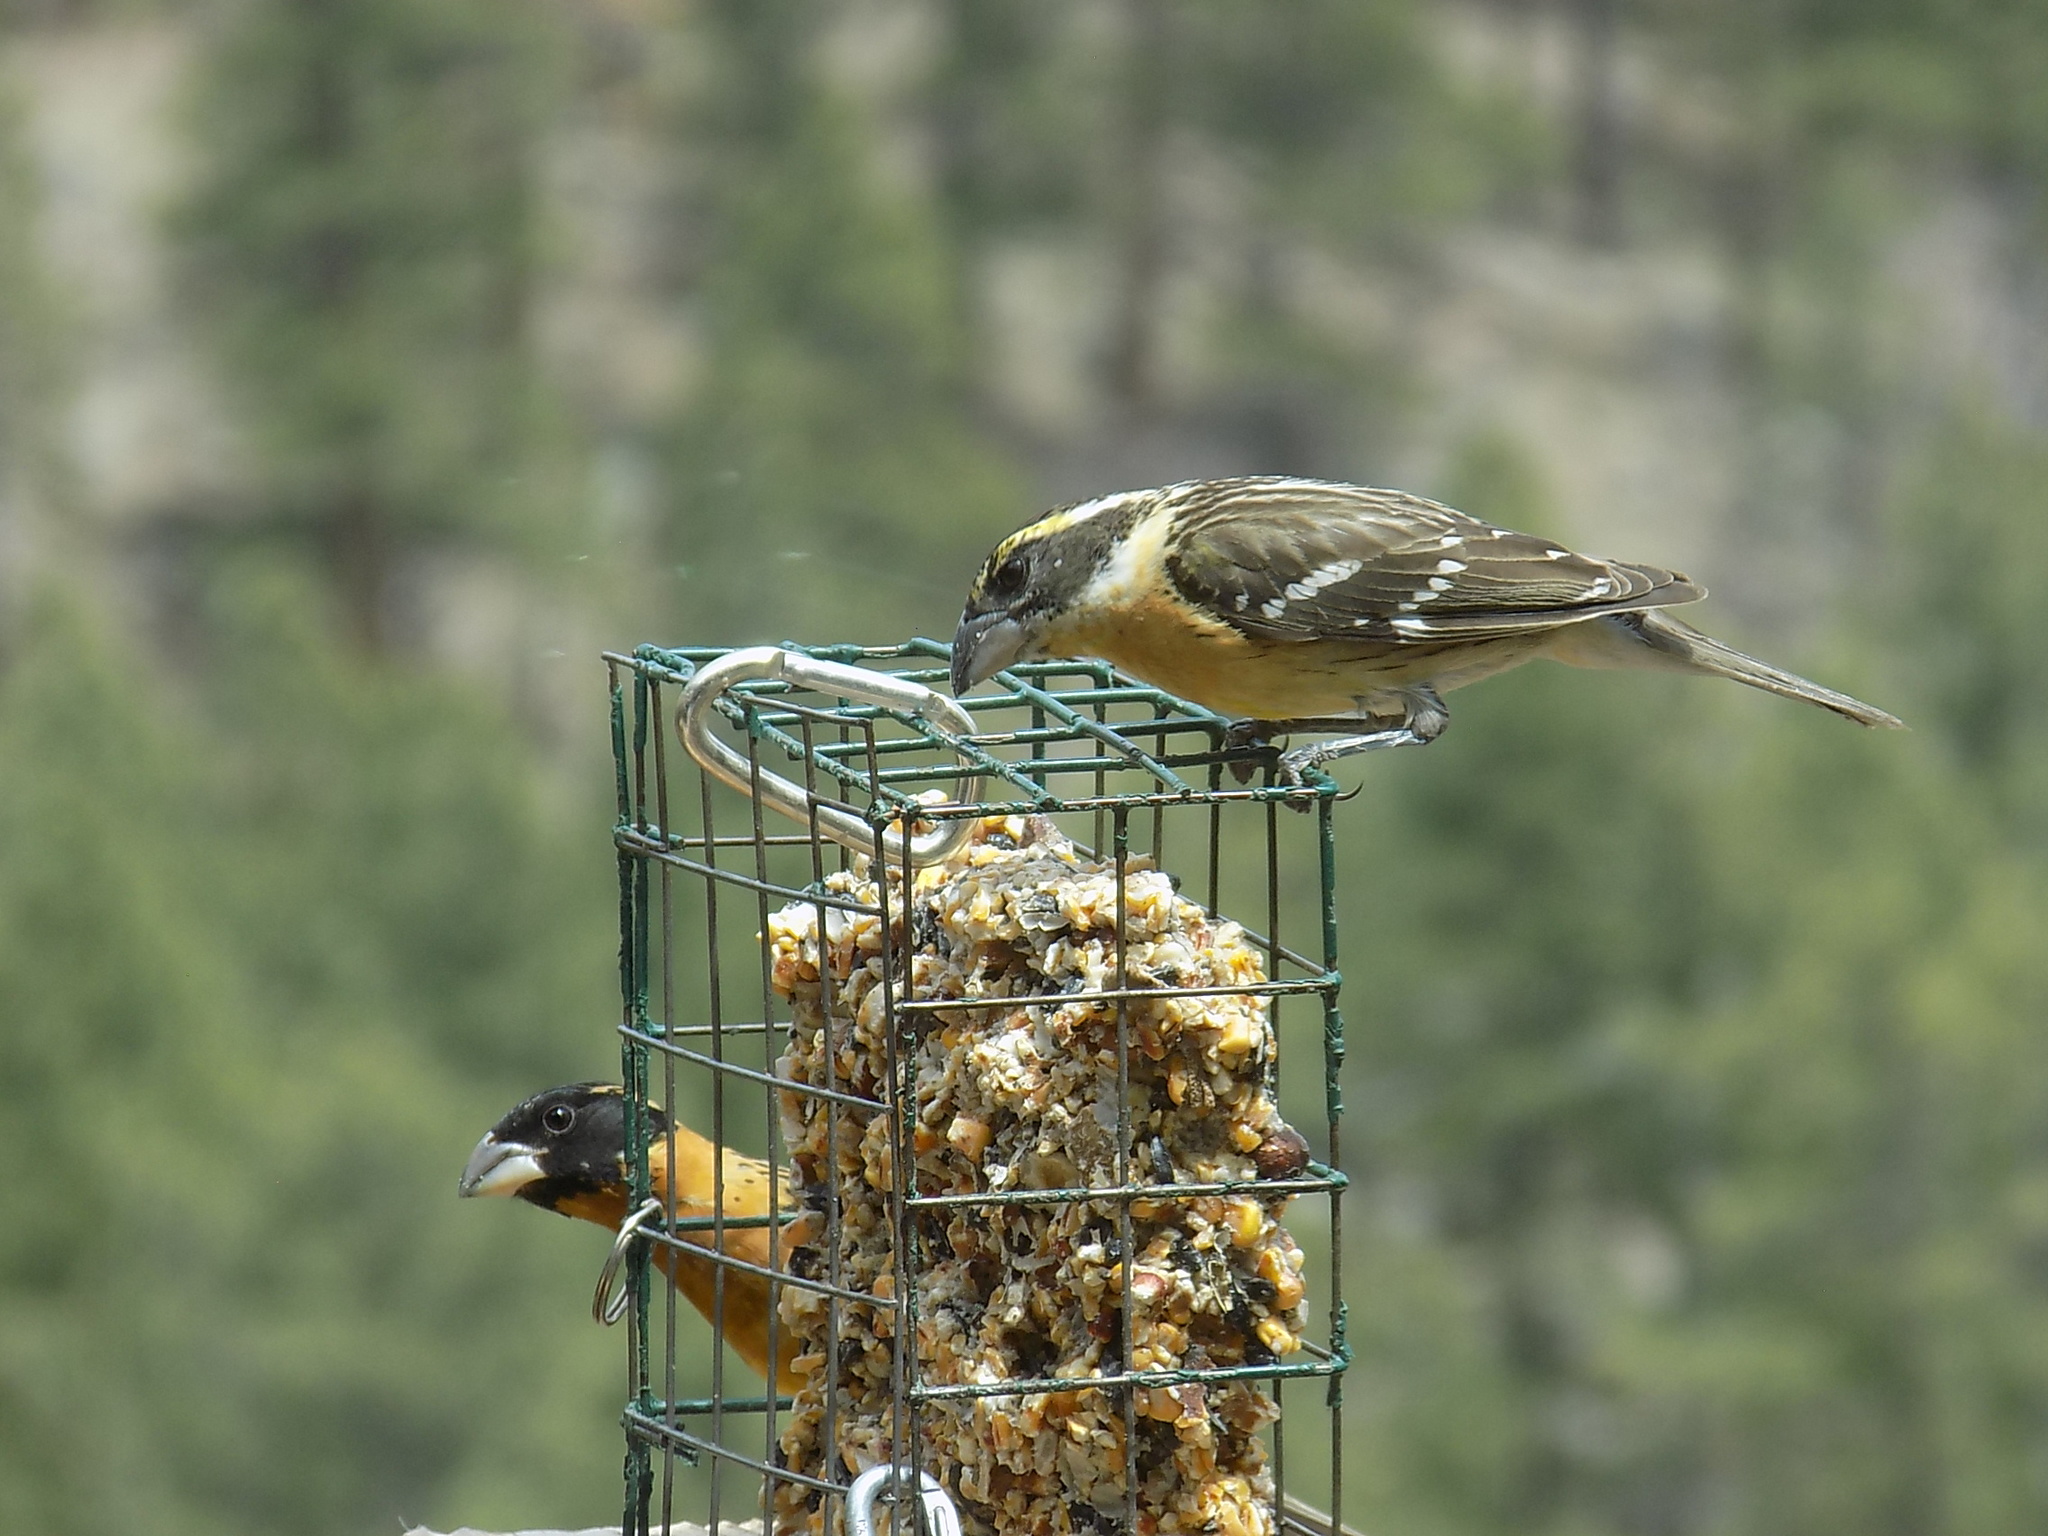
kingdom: Animalia
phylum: Chordata
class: Aves
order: Passeriformes
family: Cardinalidae
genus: Pheucticus
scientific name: Pheucticus melanocephalus
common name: Black-headed grosbeak
